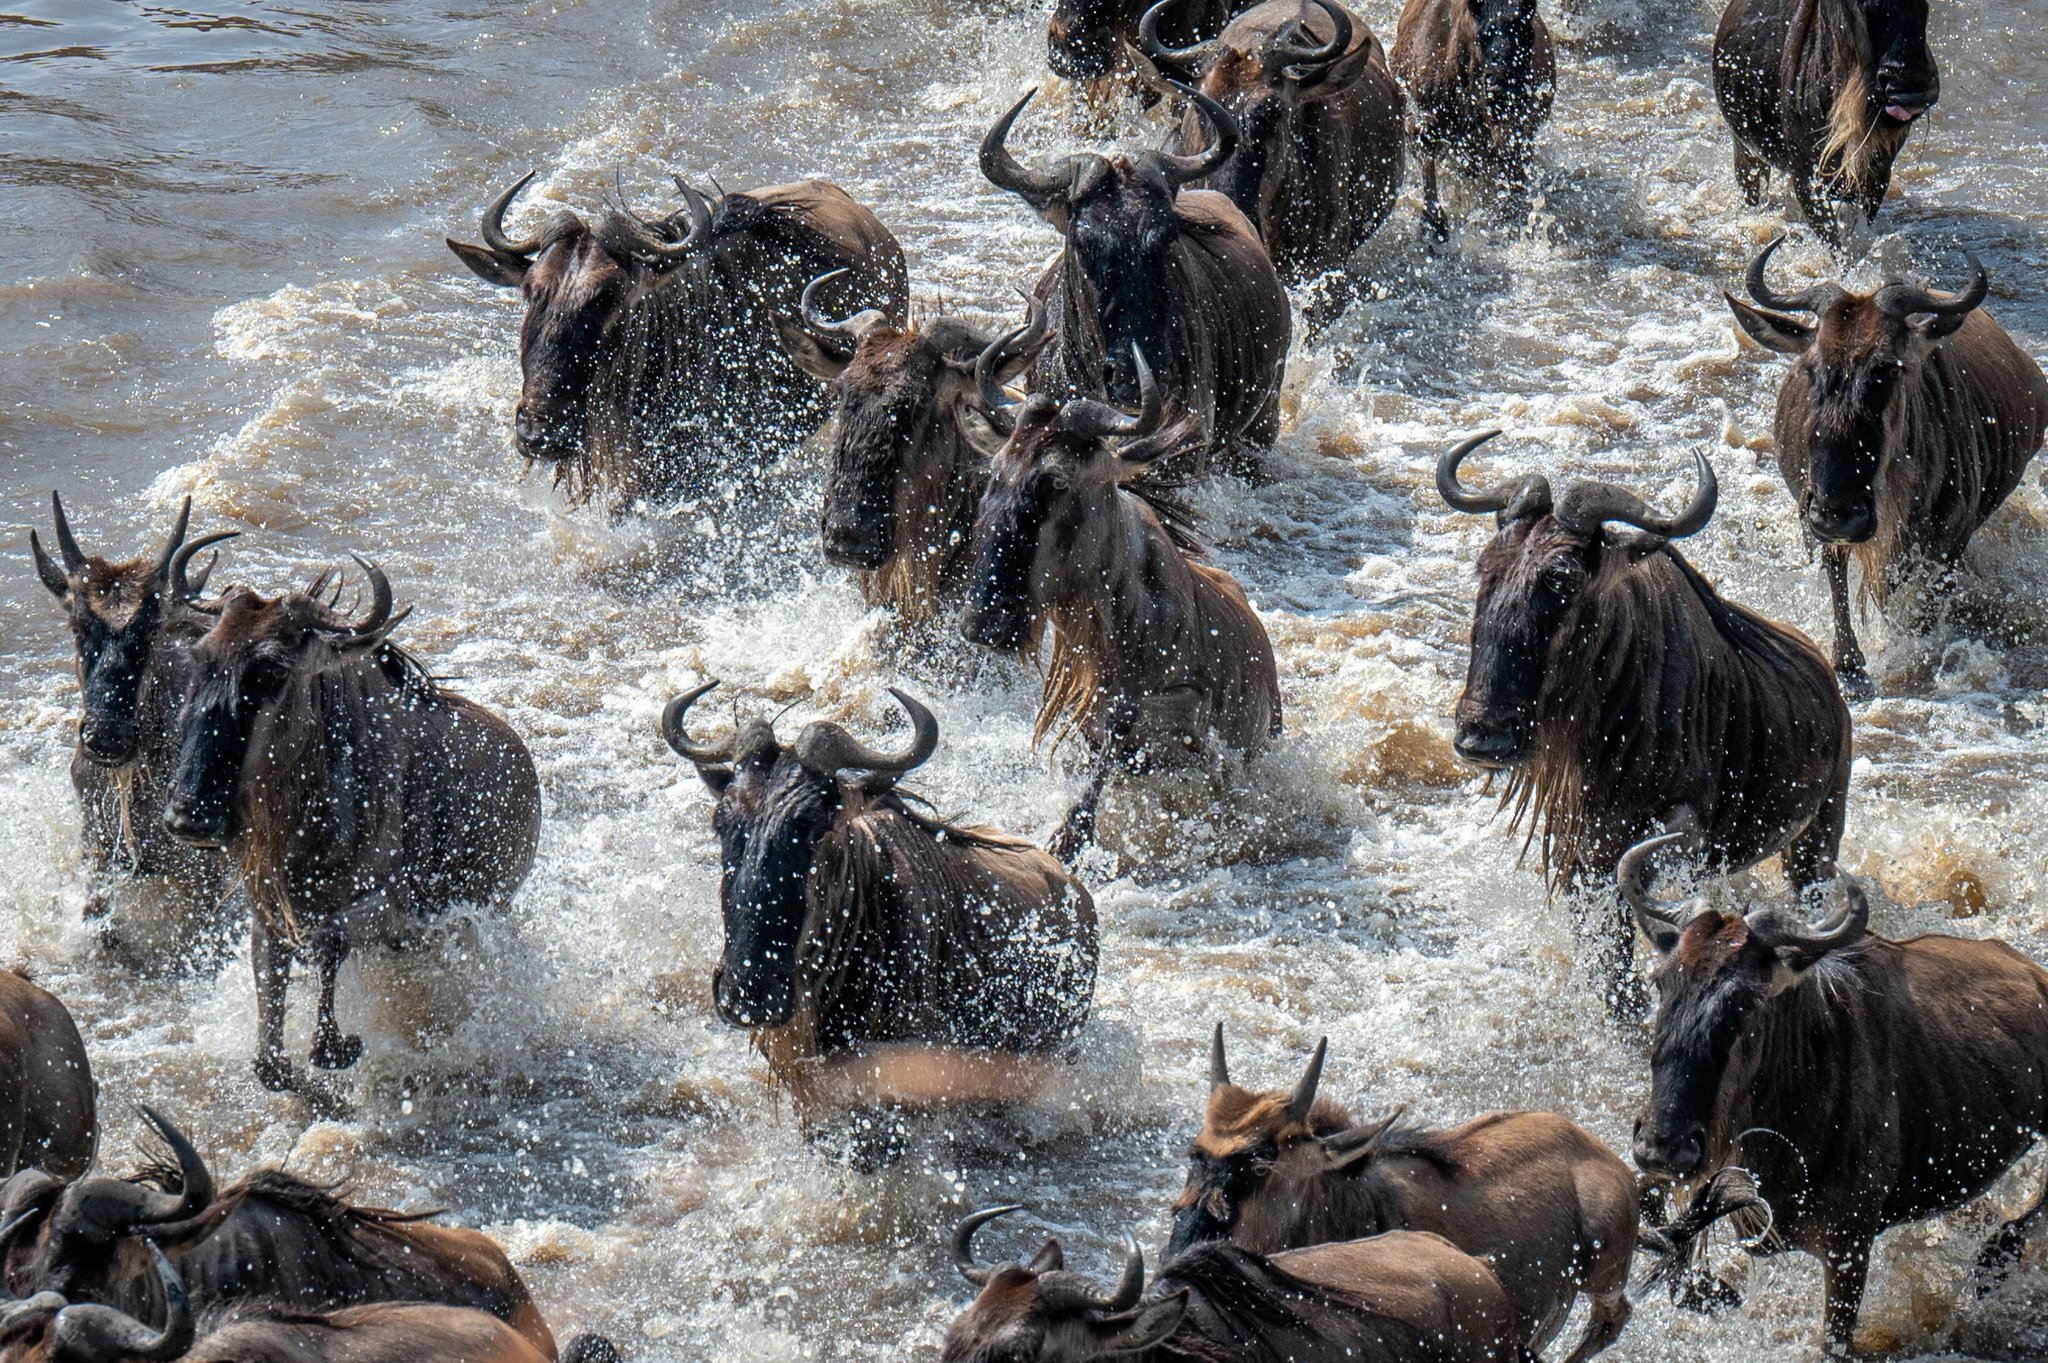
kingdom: Animalia
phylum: Chordata
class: Mammalia
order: Artiodactyla
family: Bovidae
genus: Connochaetes
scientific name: Connochaetes taurinus
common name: Blue wildebeest
